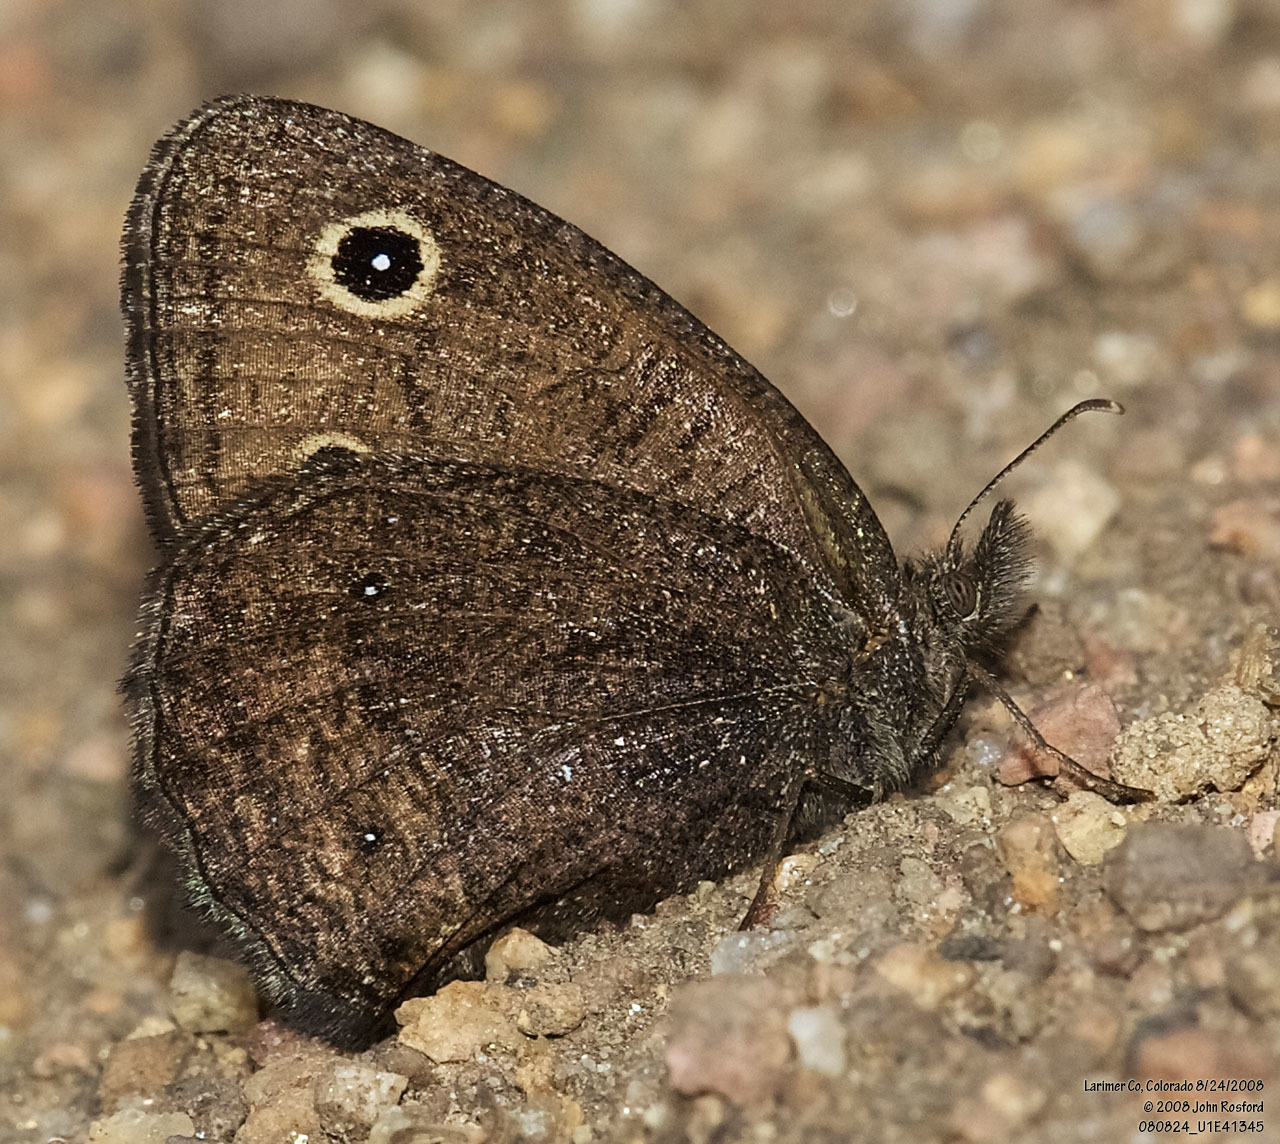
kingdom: Animalia
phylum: Arthropoda
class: Insecta
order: Lepidoptera
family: Nymphalidae
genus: Cercyonis
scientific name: Cercyonis oetus
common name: Small wood-nymph
